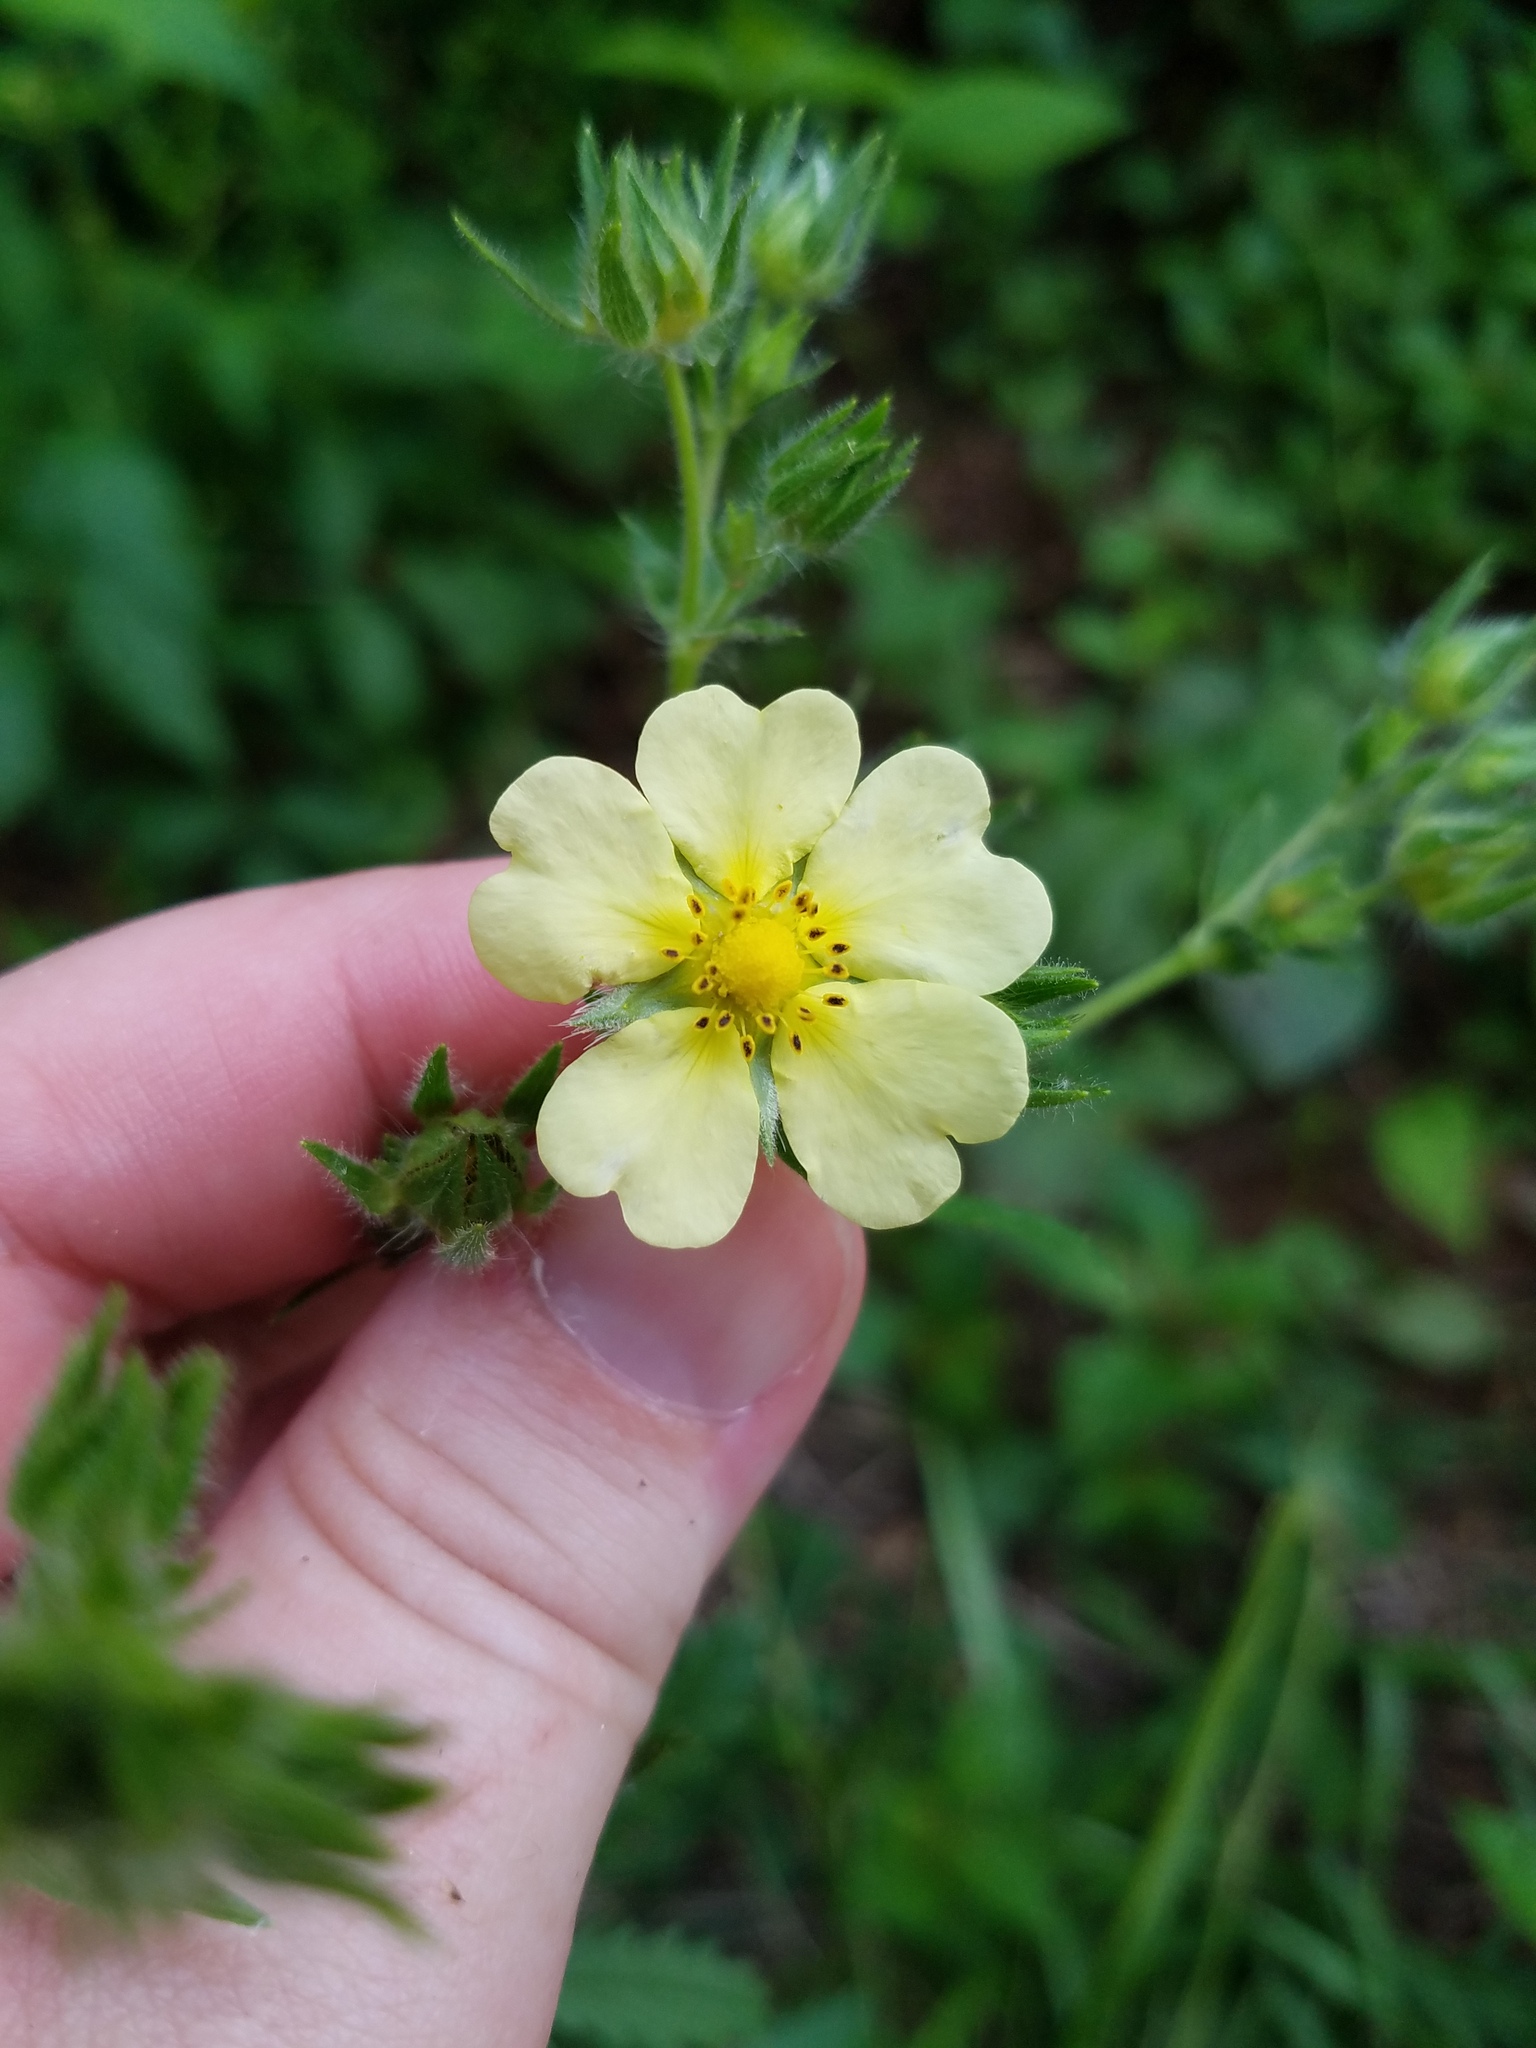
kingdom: Plantae
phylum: Tracheophyta
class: Magnoliopsida
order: Rosales
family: Rosaceae
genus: Potentilla
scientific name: Potentilla recta
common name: Sulphur cinquefoil
